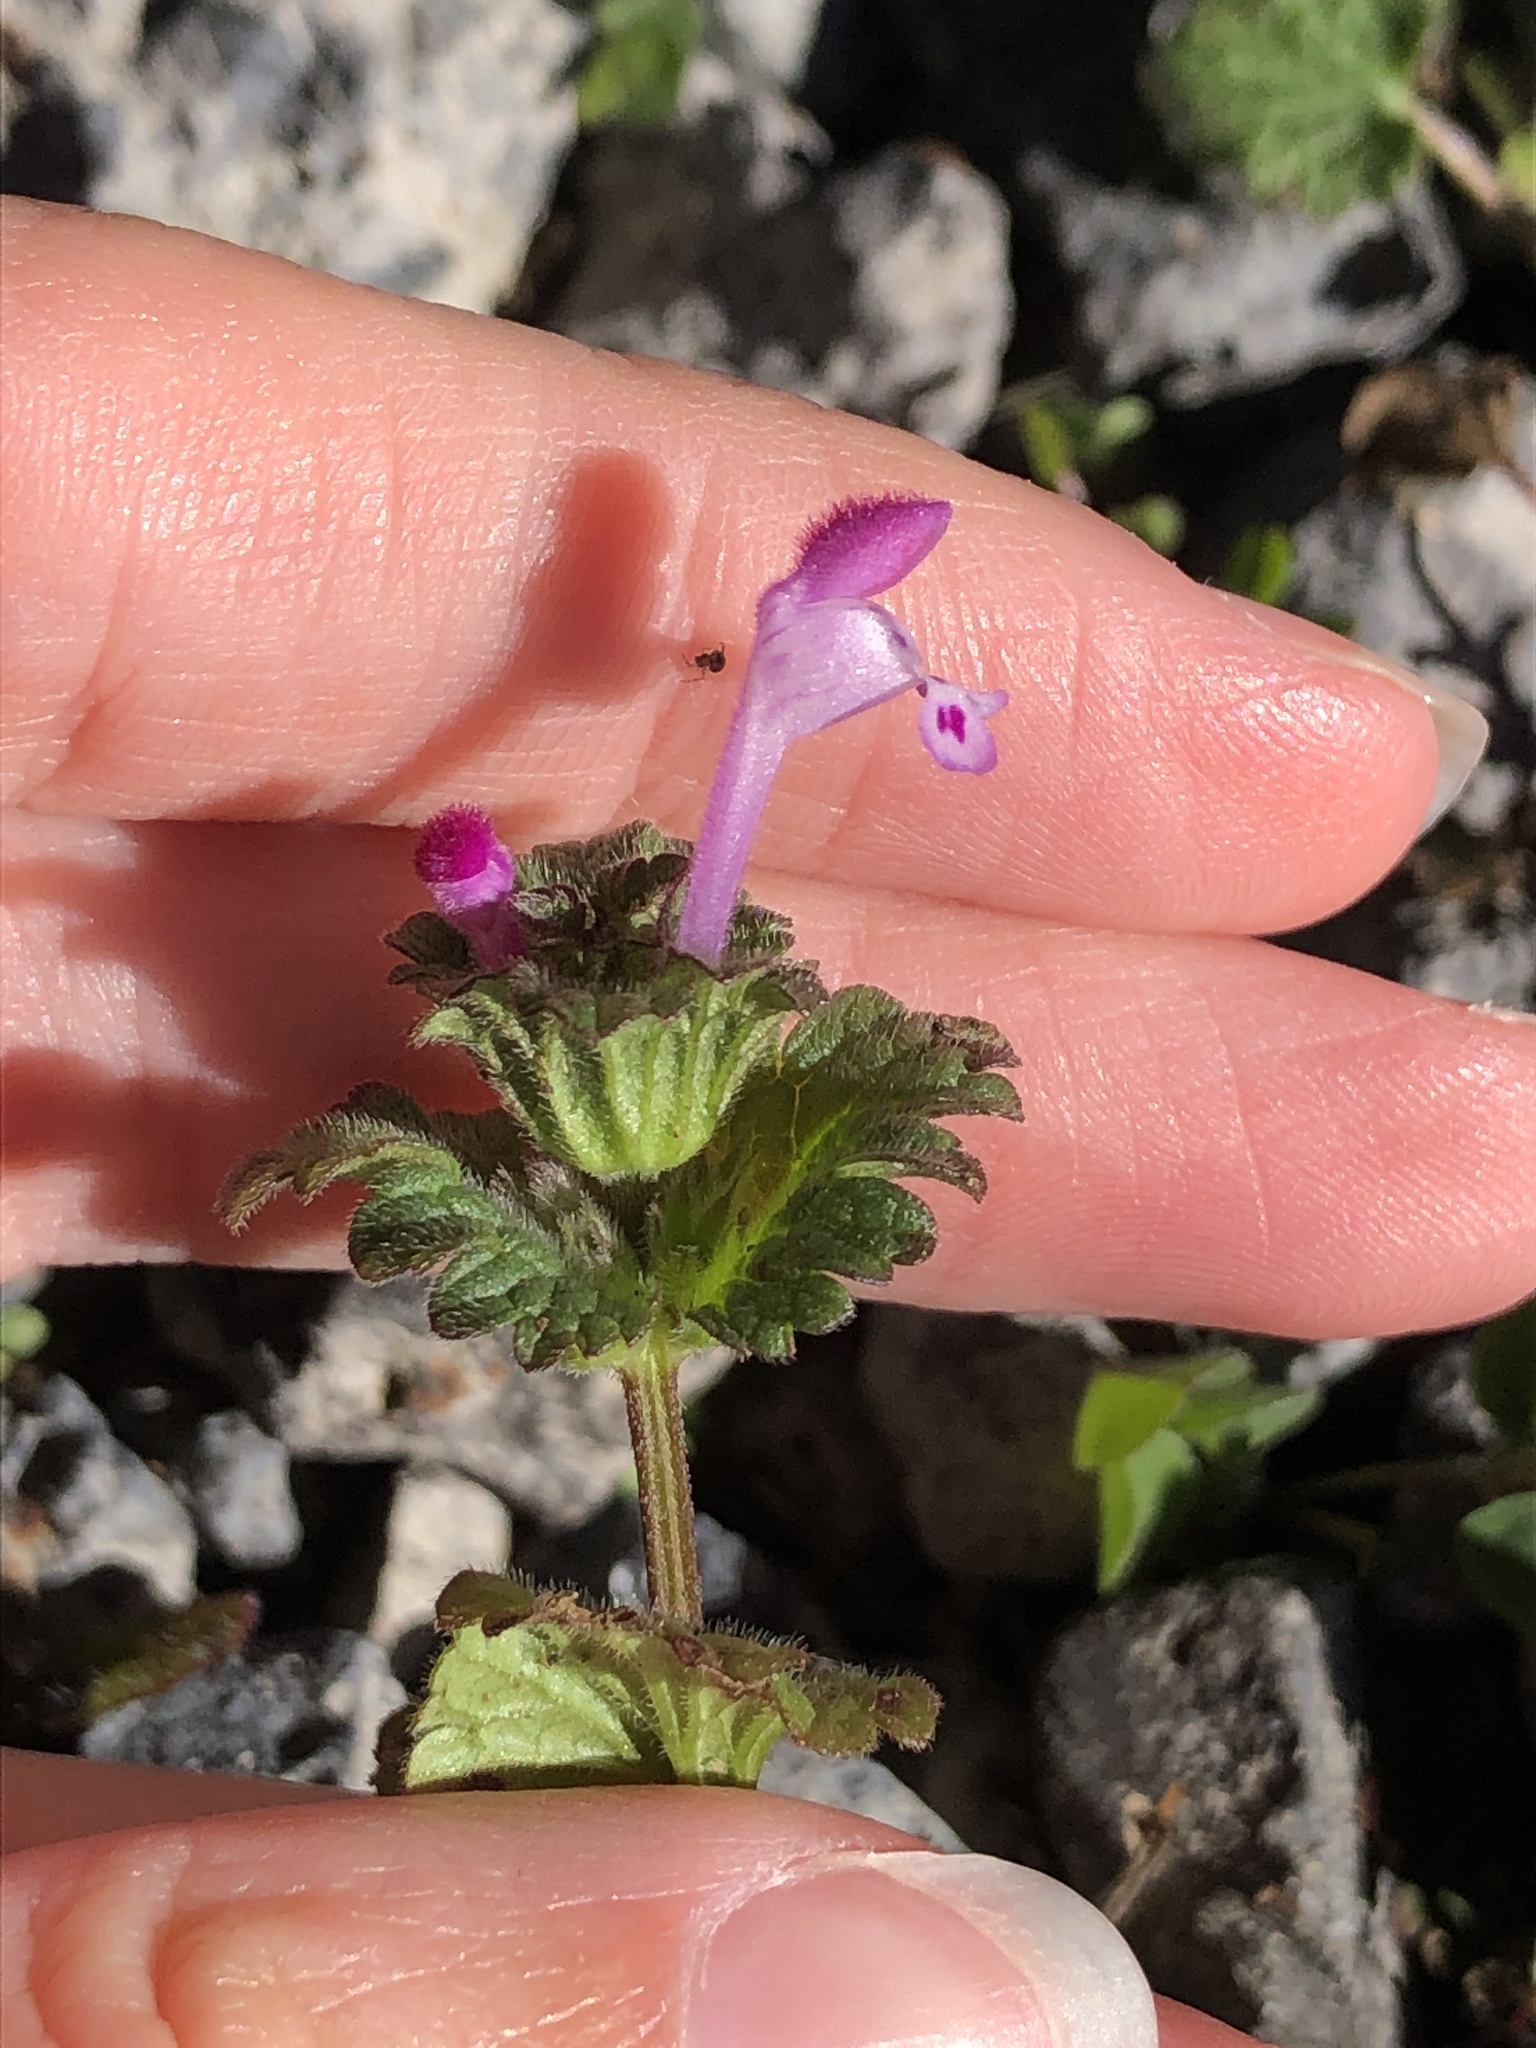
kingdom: Plantae
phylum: Tracheophyta
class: Magnoliopsida
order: Lamiales
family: Lamiaceae
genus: Lamium
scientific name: Lamium amplexicaule
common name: Henbit dead-nettle
